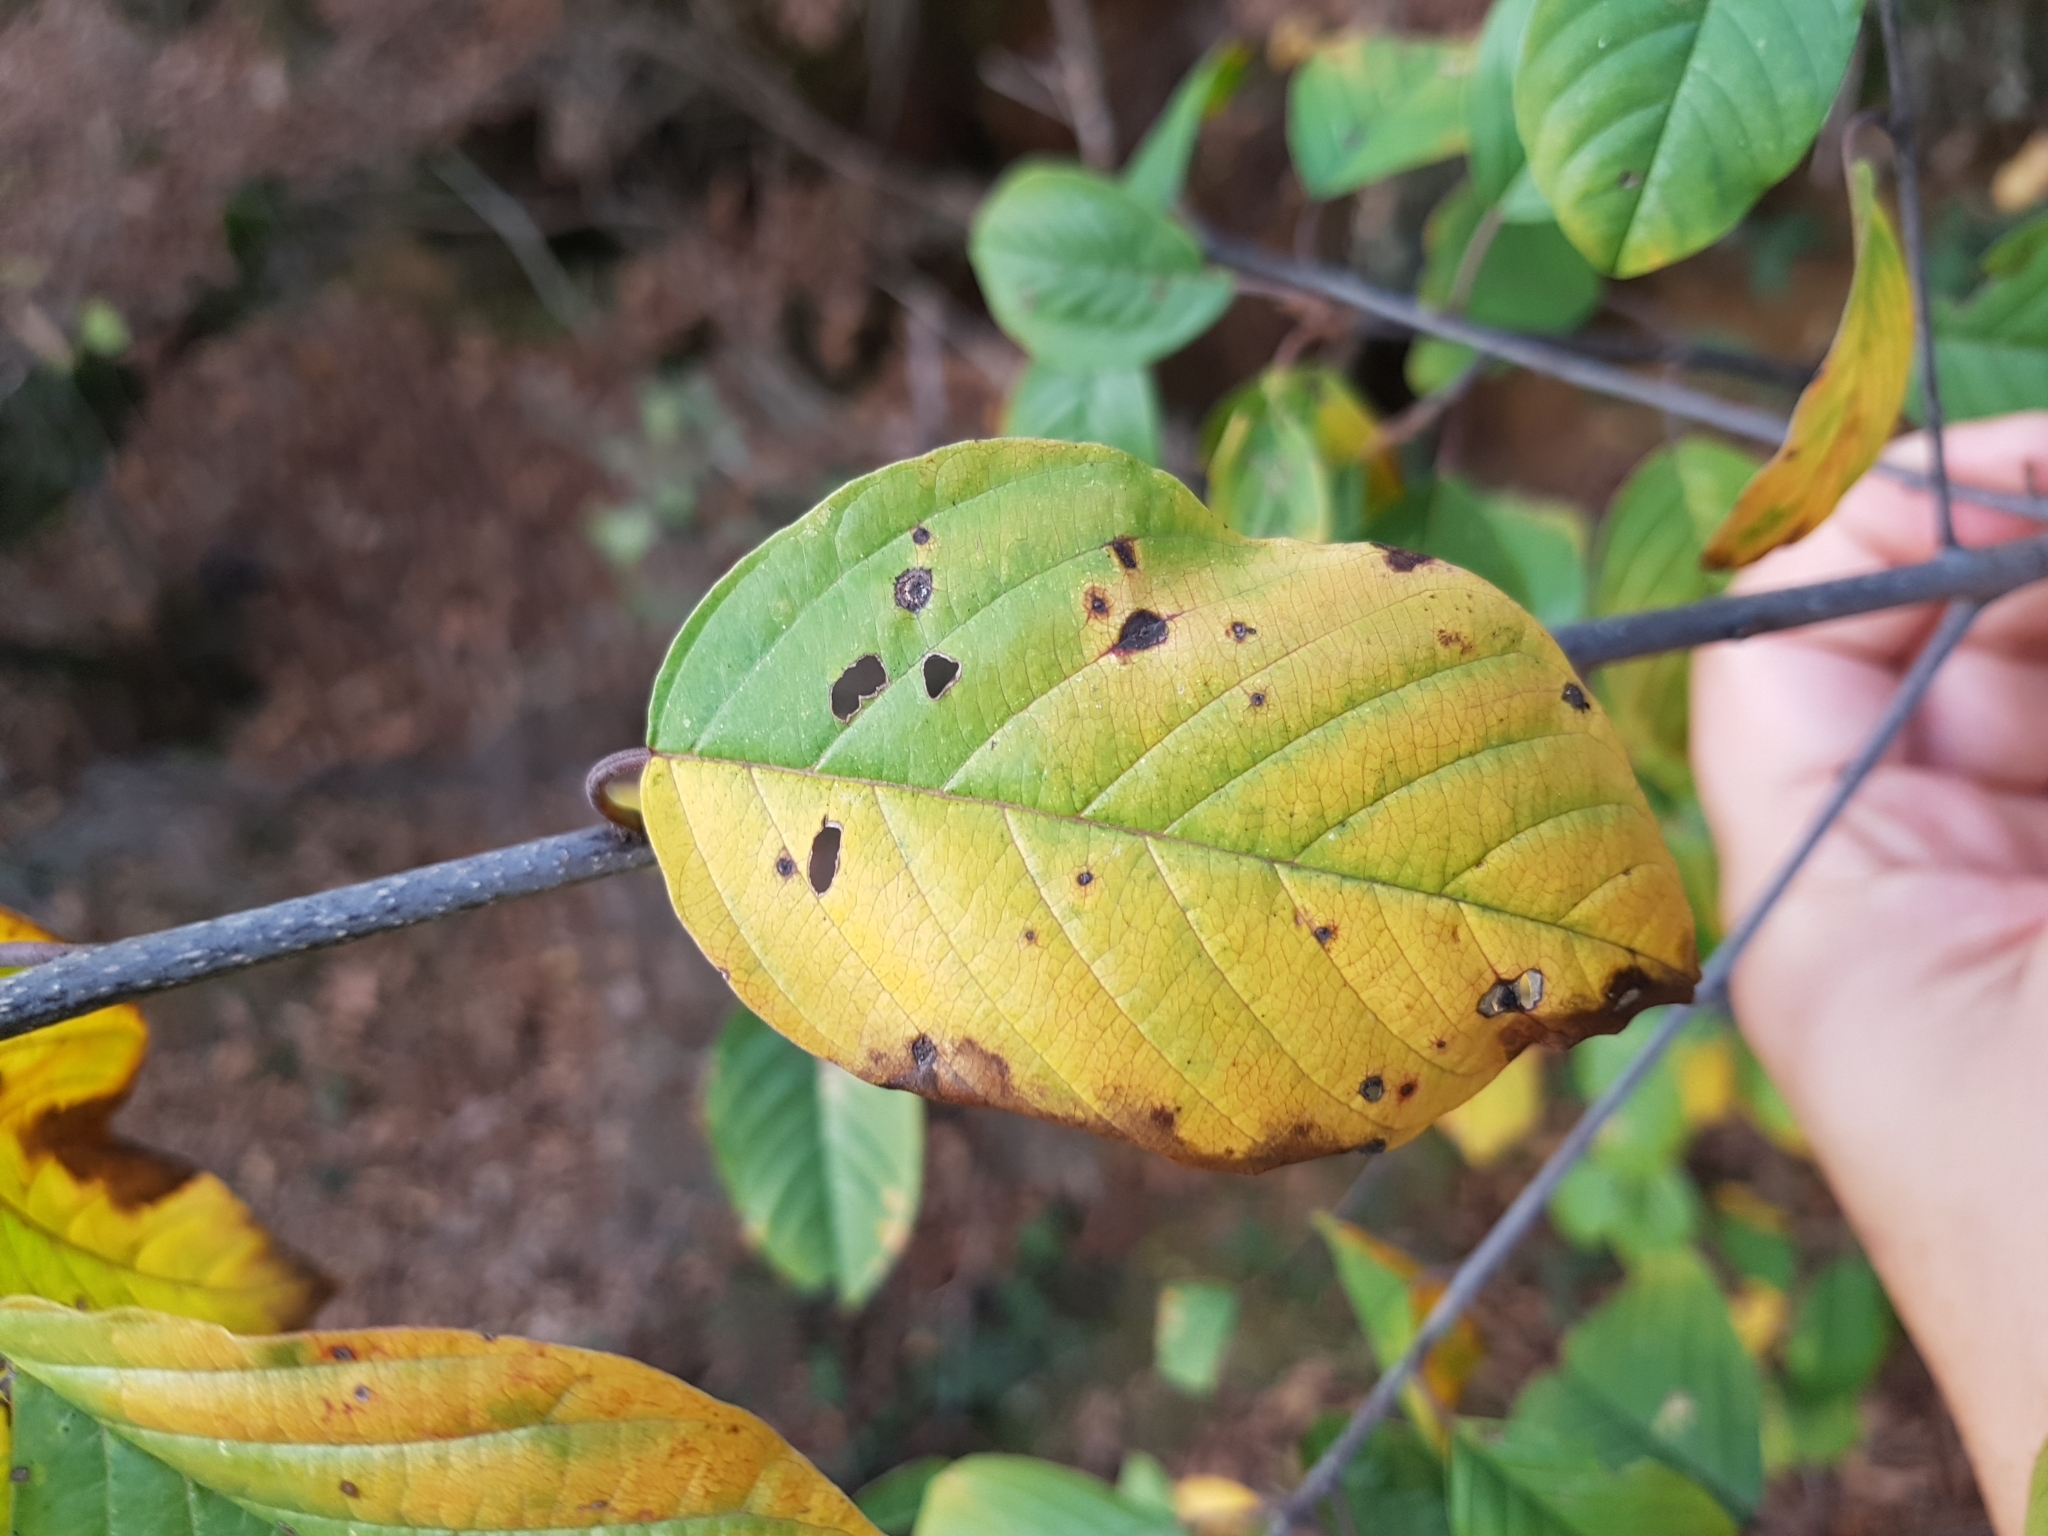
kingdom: Plantae
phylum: Tracheophyta
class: Magnoliopsida
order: Rosales
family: Rhamnaceae
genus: Frangula
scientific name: Frangula alnus
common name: Alder buckthorn
